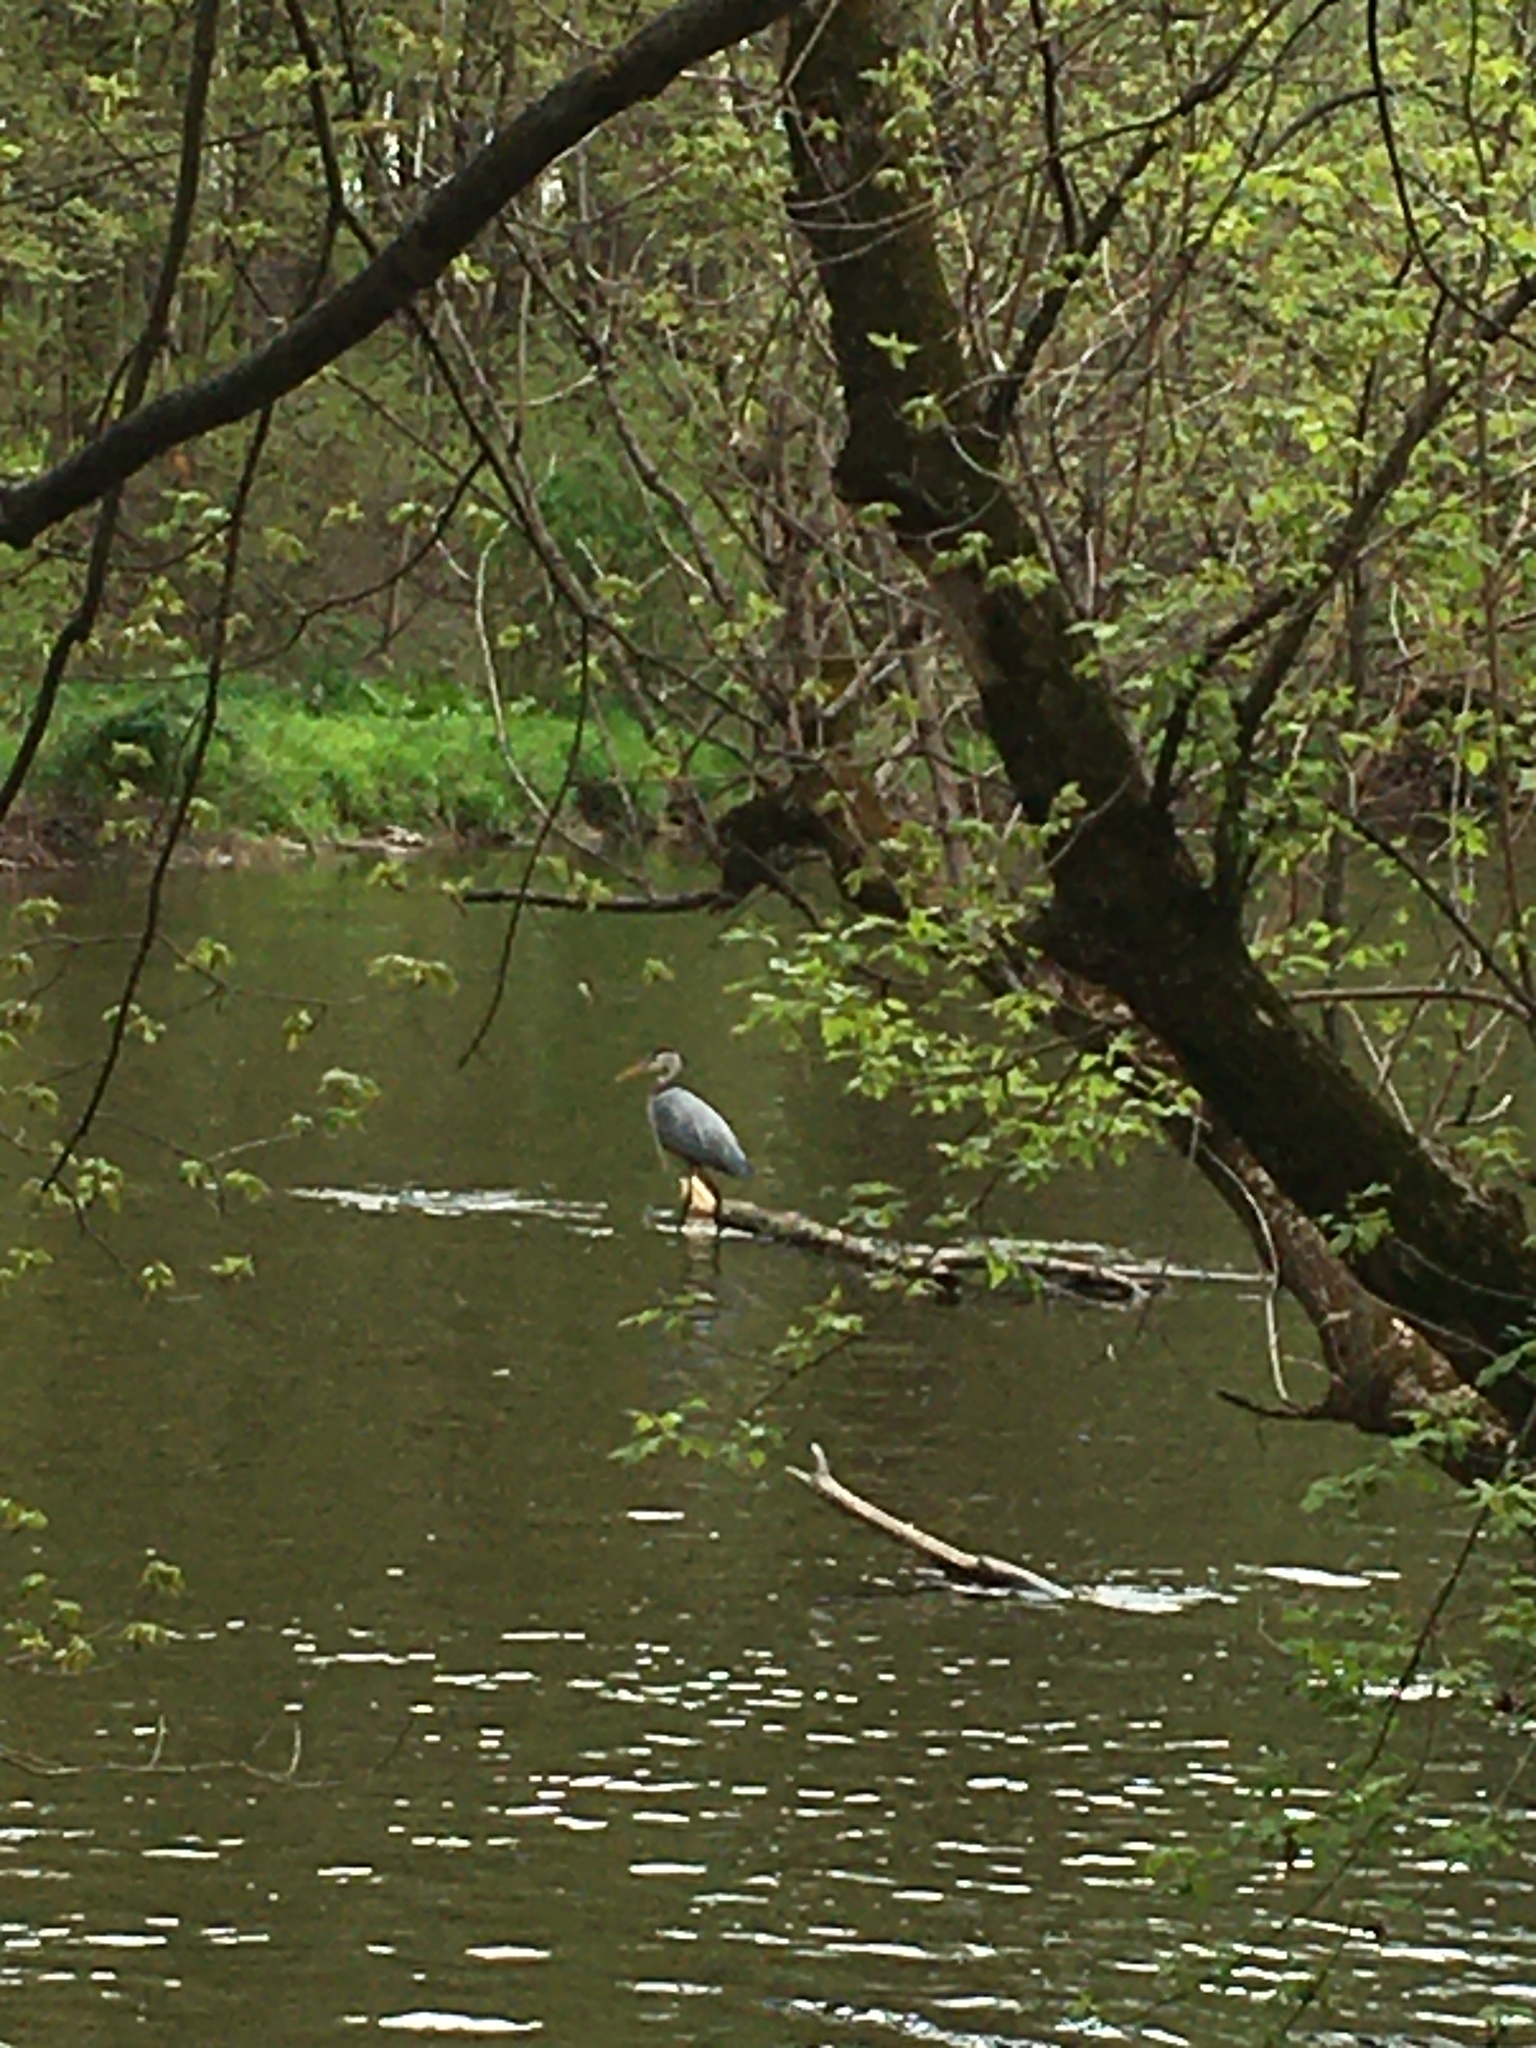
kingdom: Animalia
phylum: Chordata
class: Aves
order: Pelecaniformes
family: Ardeidae
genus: Ardea
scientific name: Ardea herodias
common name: Great blue heron
